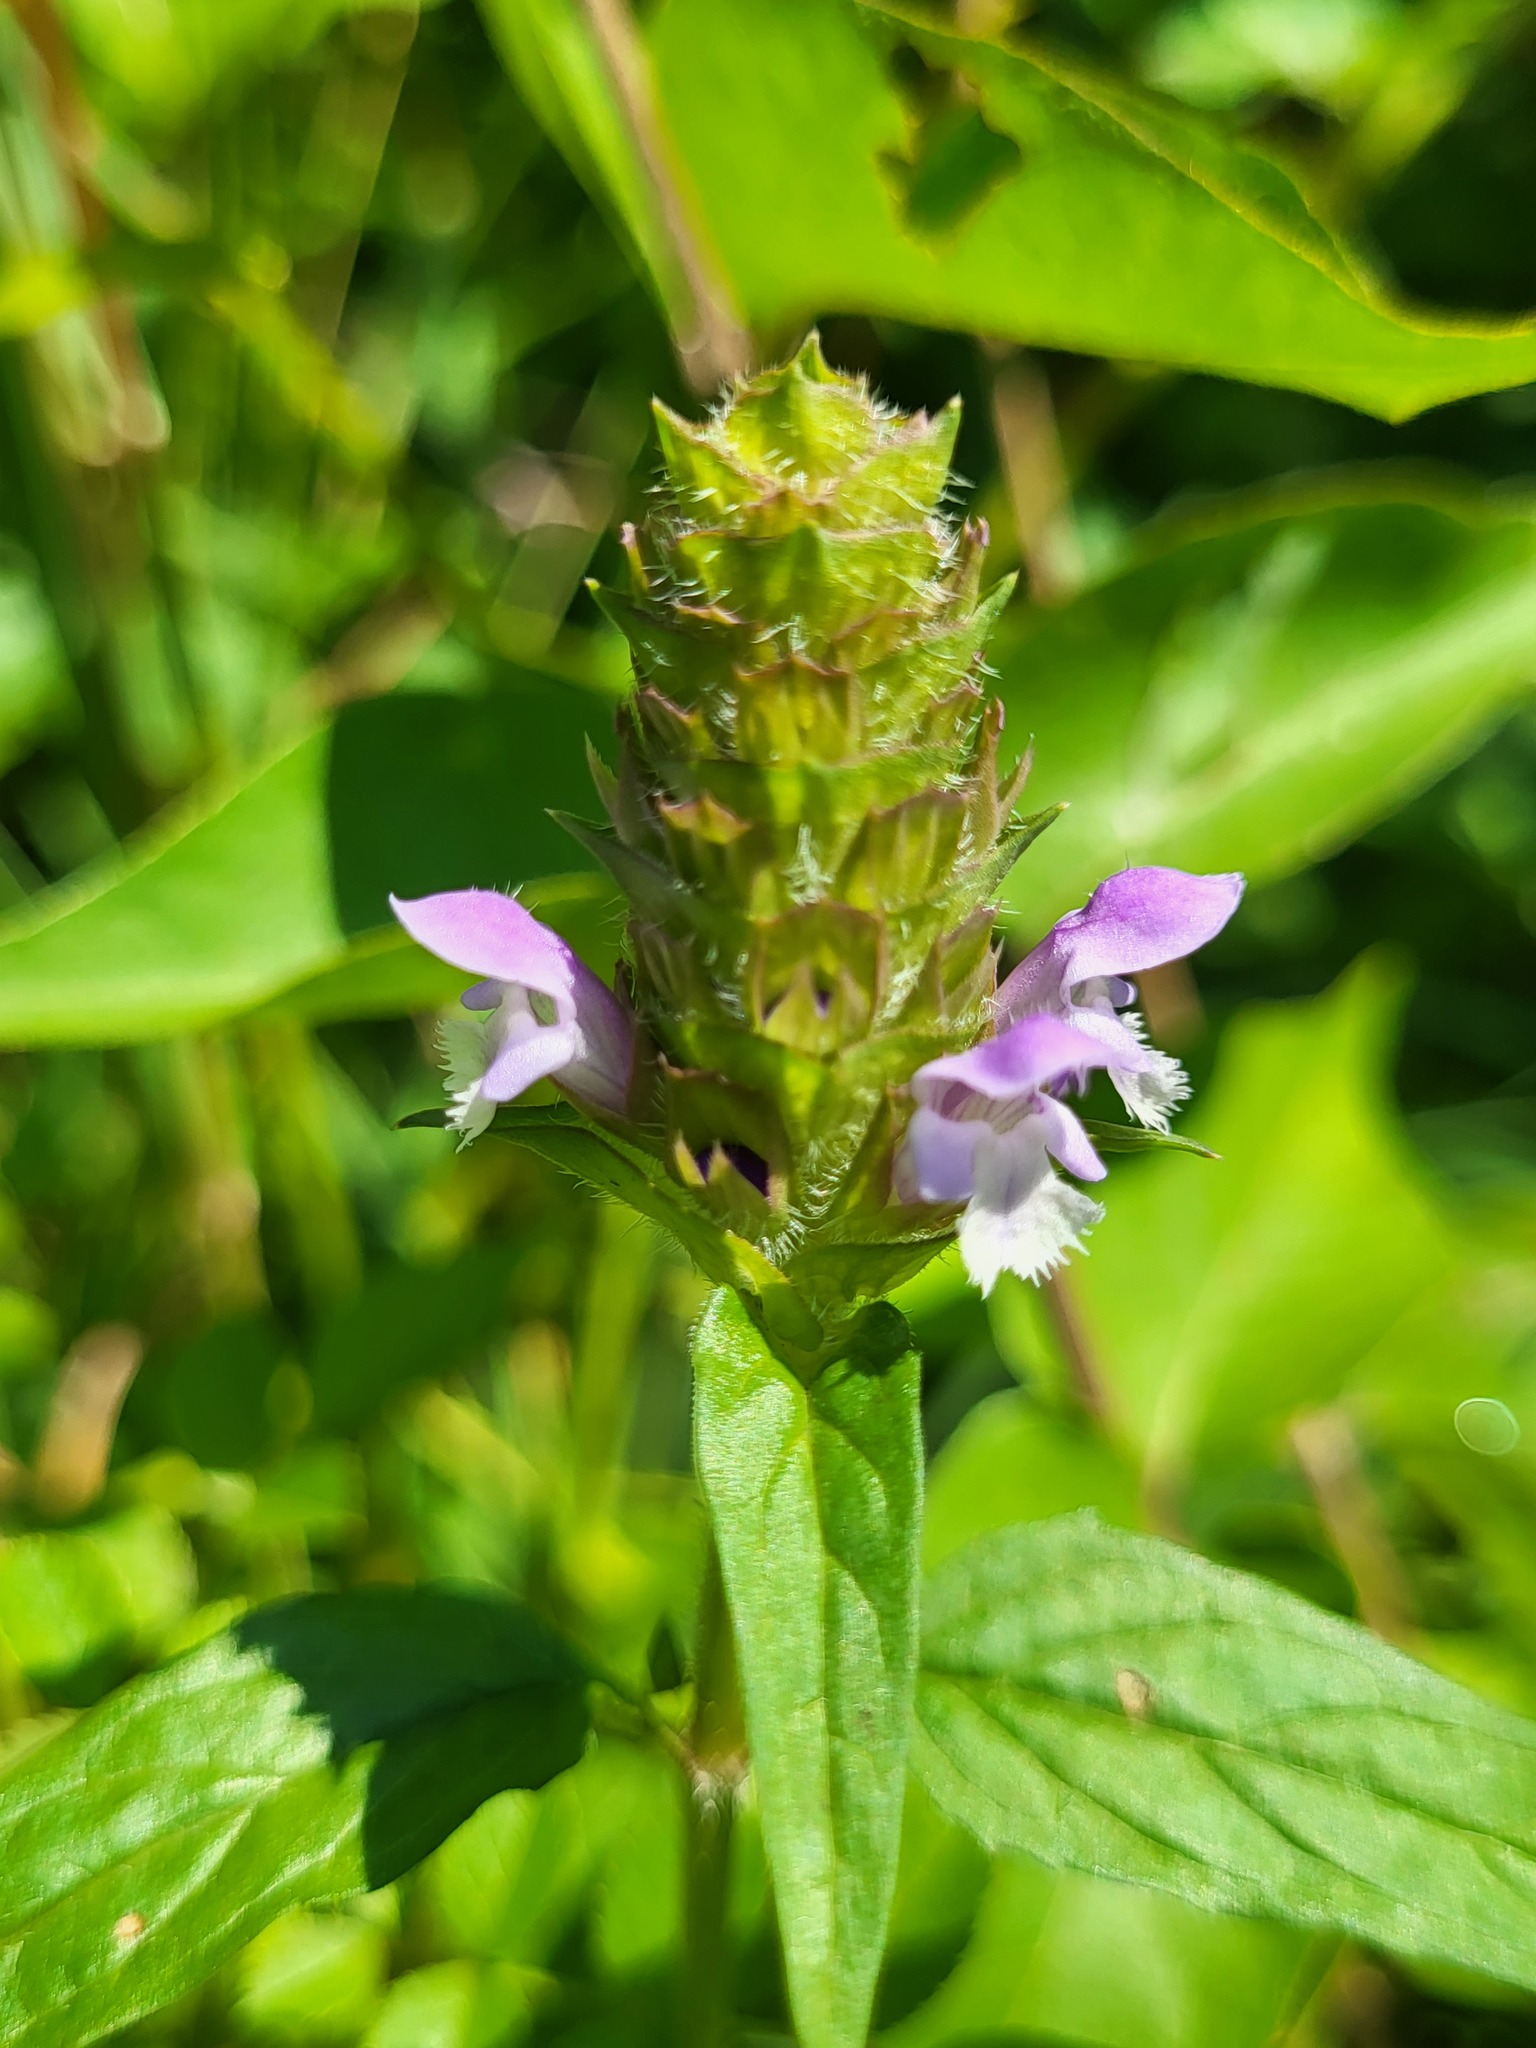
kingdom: Plantae
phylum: Tracheophyta
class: Magnoliopsida
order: Lamiales
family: Lamiaceae
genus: Prunella
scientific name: Prunella vulgaris
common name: Heal-all
